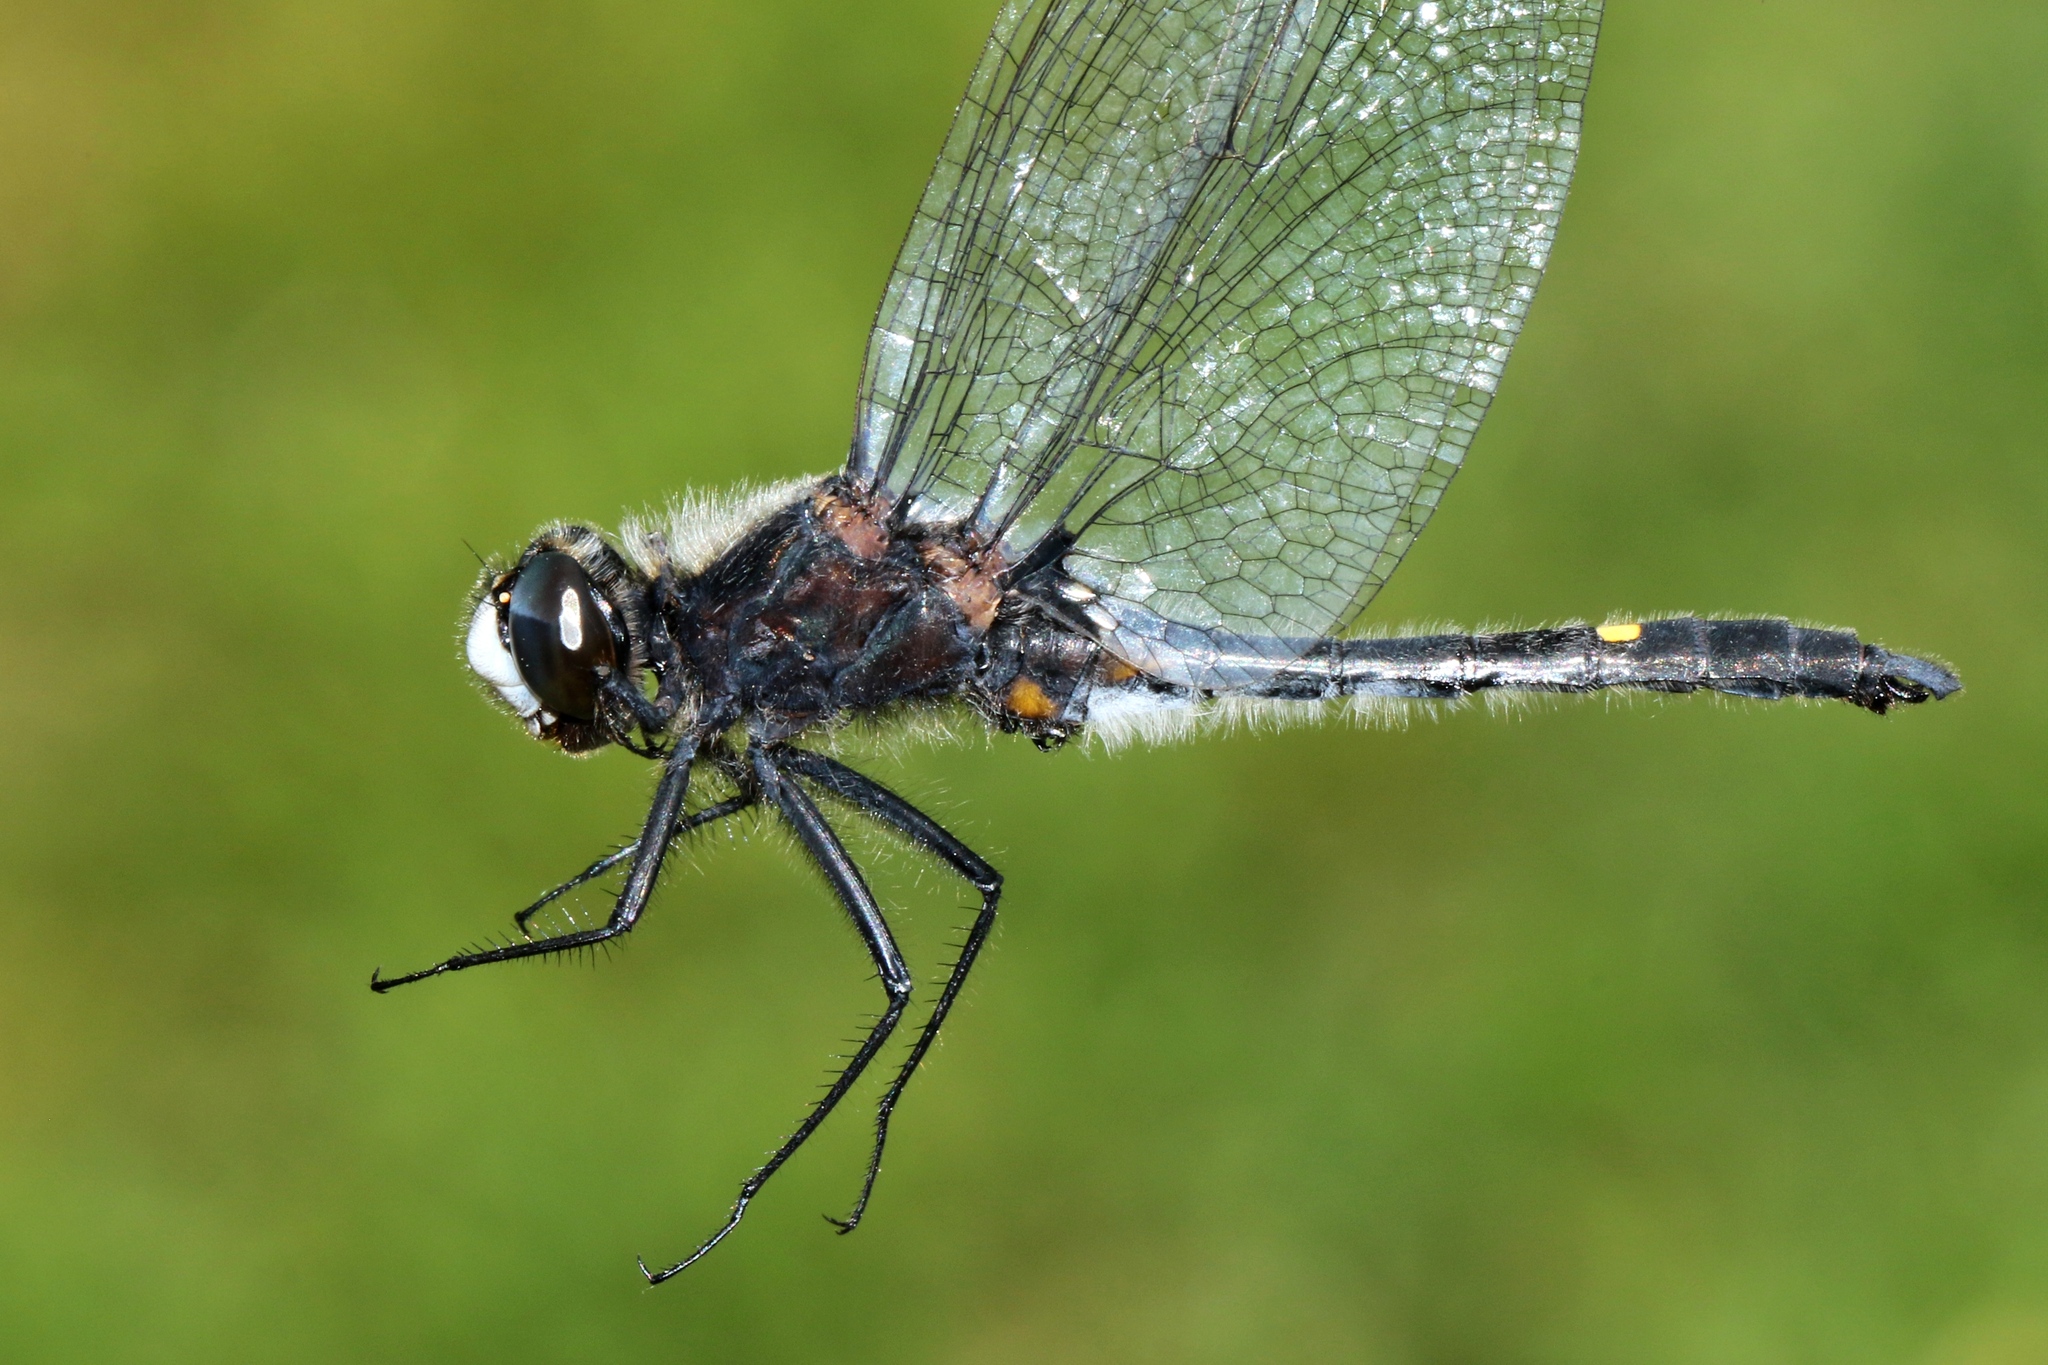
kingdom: Animalia
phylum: Arthropoda
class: Insecta
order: Odonata
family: Libellulidae
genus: Leucorrhinia
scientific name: Leucorrhinia intacta
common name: Dot-tailed whiteface
